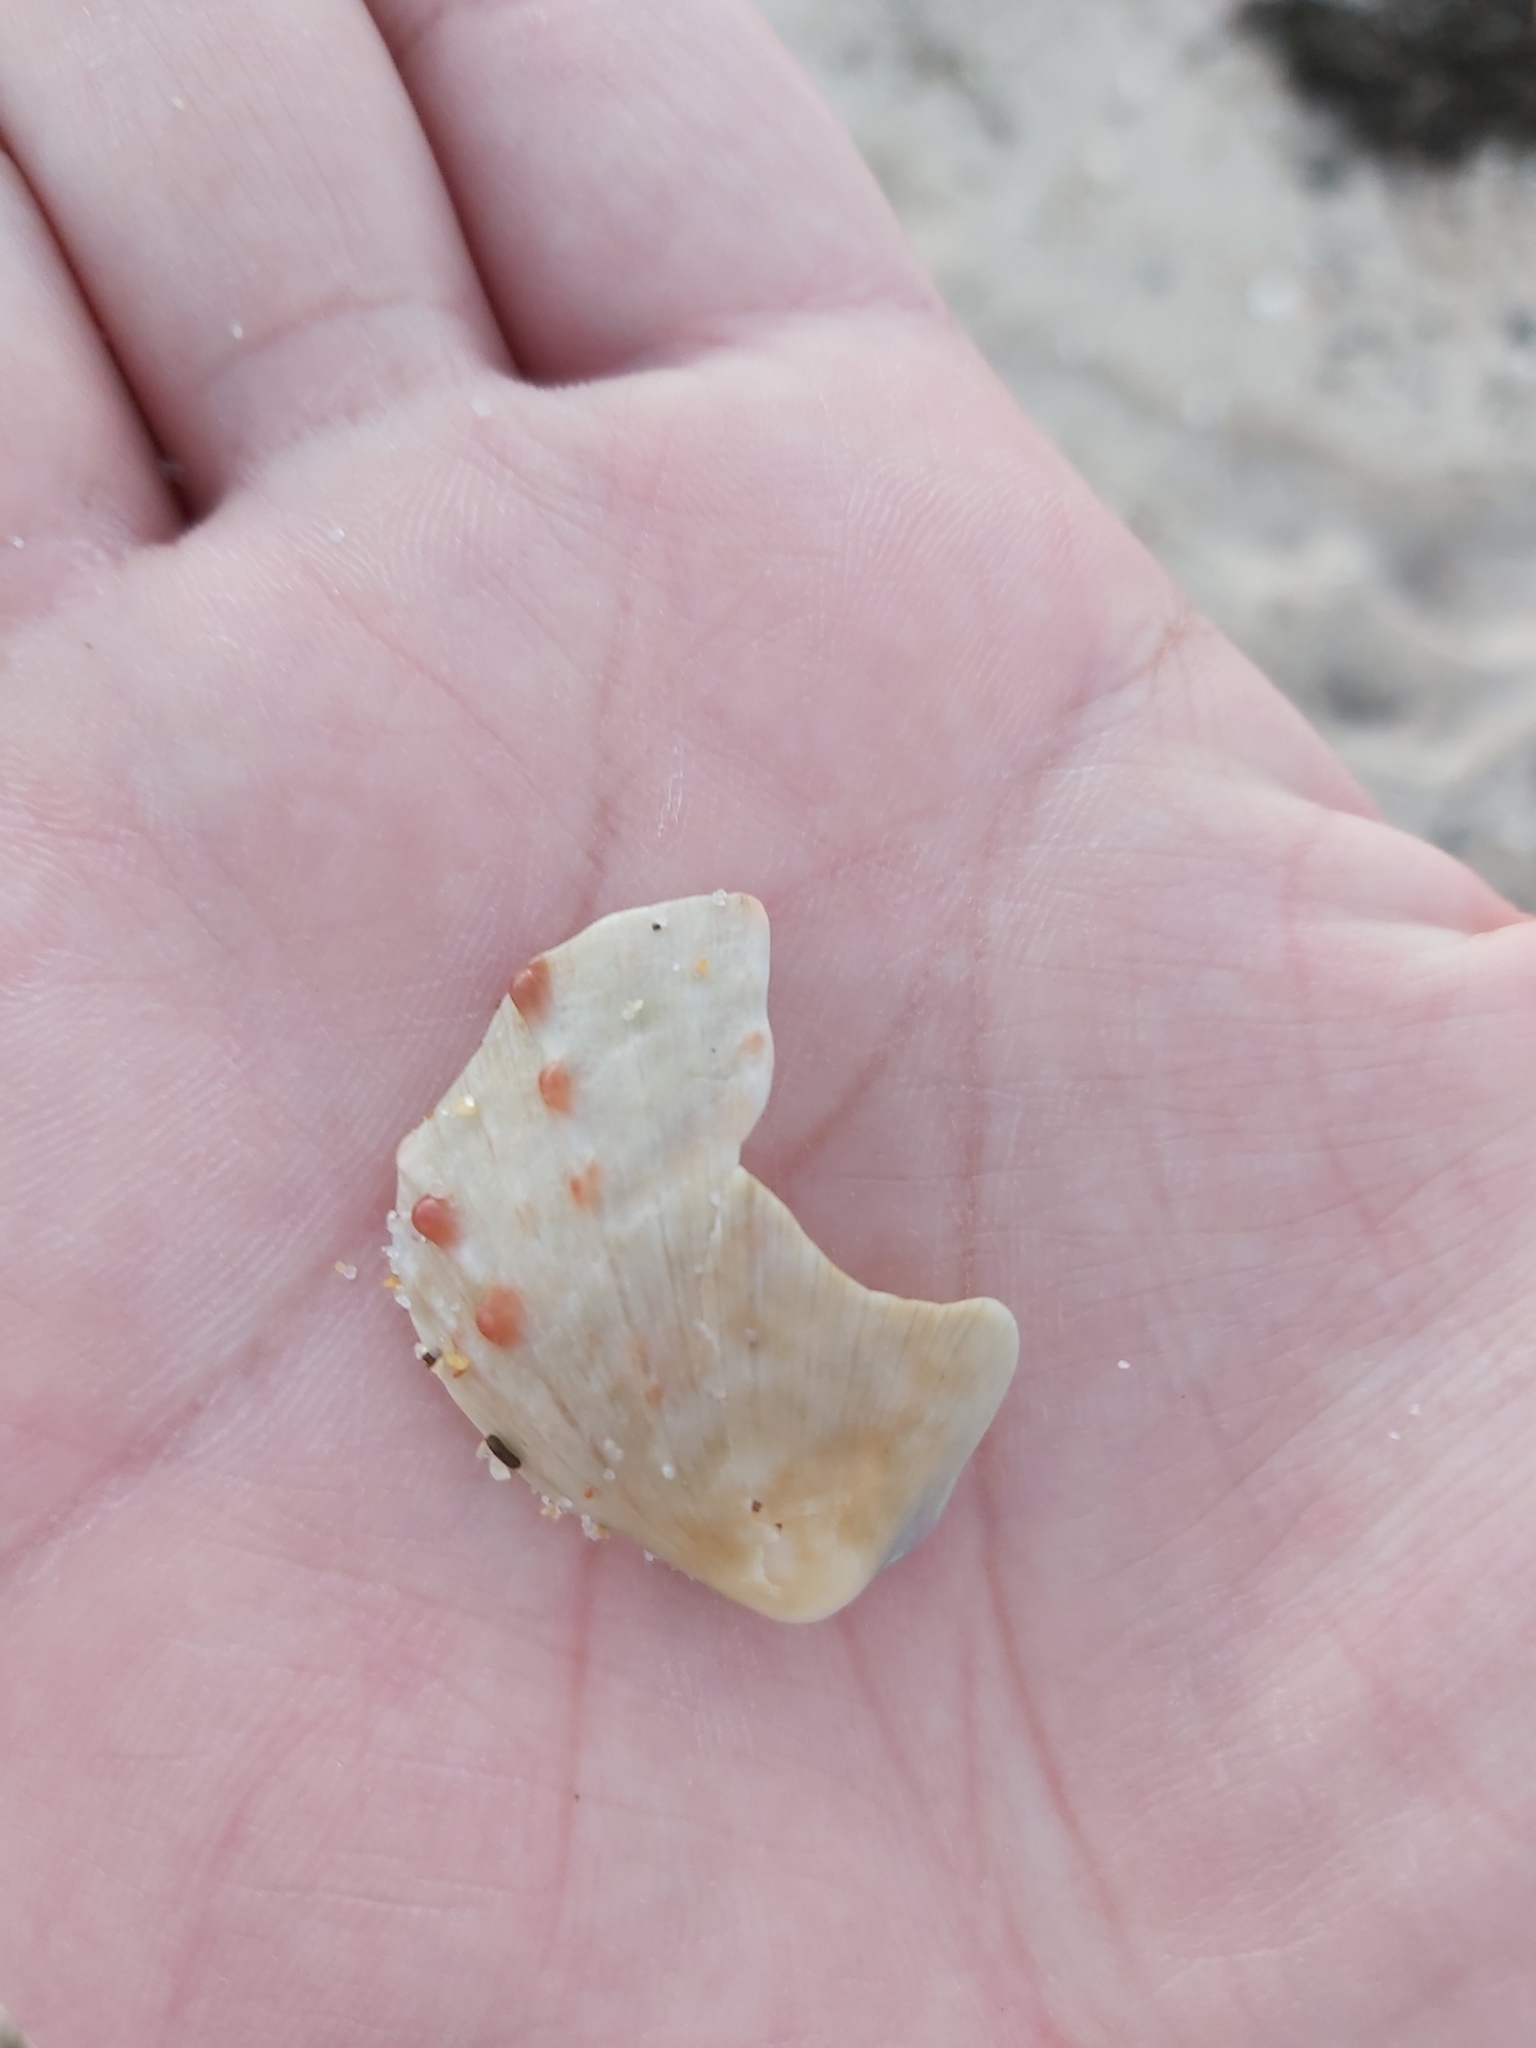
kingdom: Animalia
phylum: Mollusca
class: Bivalvia
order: Pectinida
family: Spondylidae
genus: Spondylus
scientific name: Spondylus tenellus
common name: Scarlet thorny oyster
